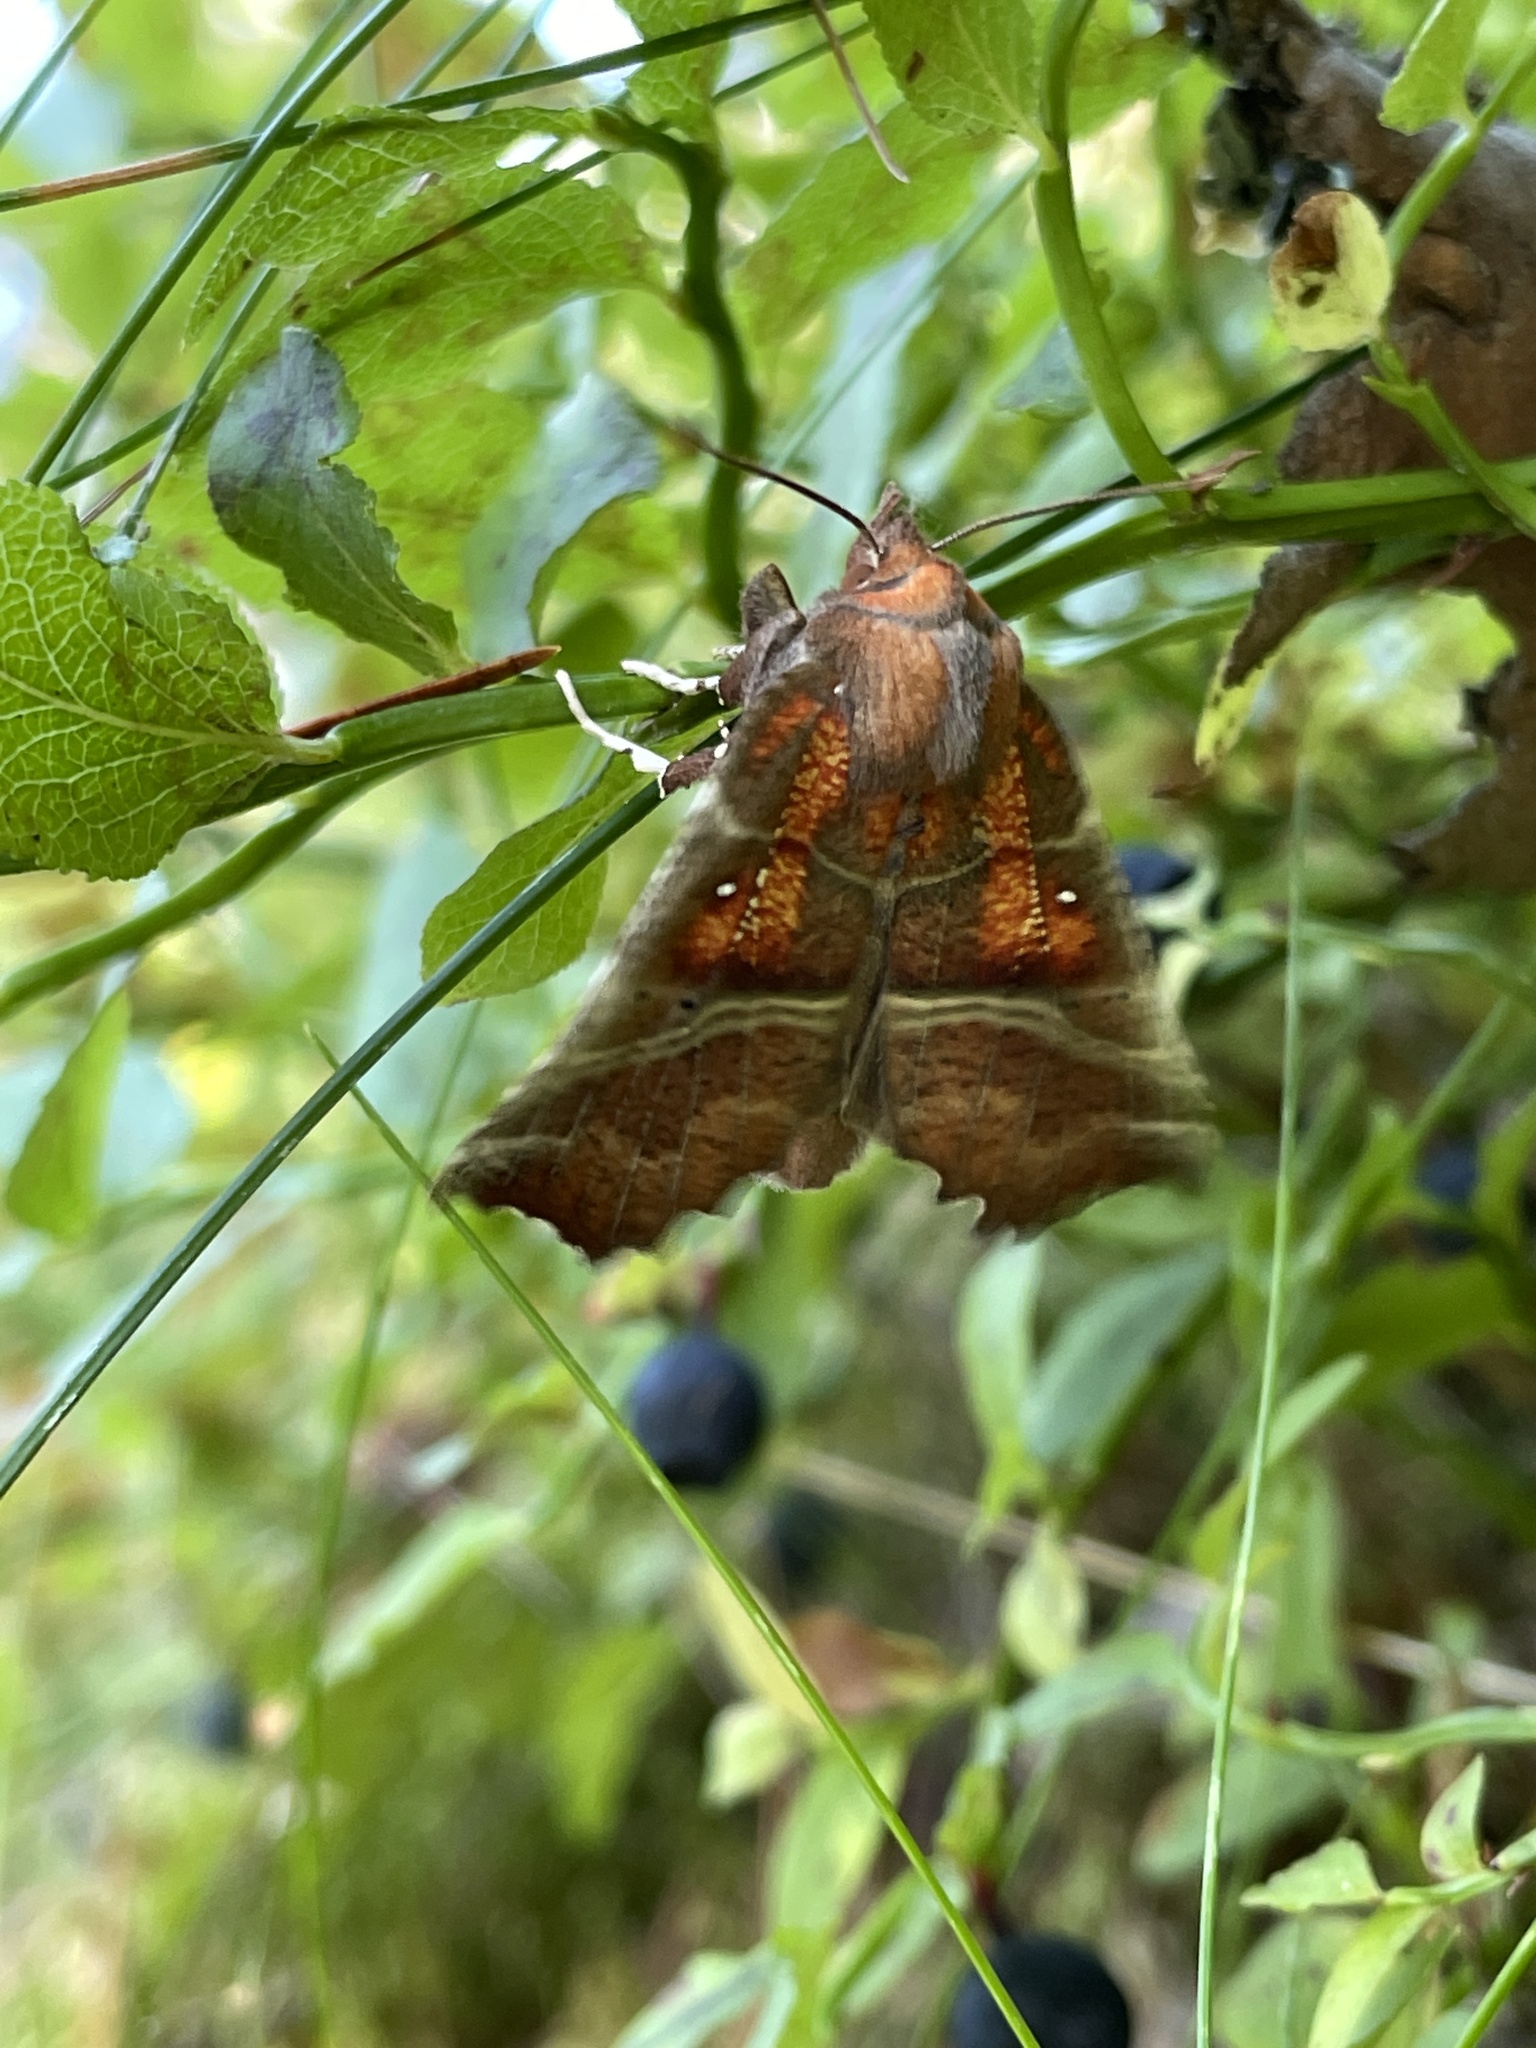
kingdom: Animalia
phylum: Arthropoda
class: Insecta
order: Lepidoptera
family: Erebidae
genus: Scoliopteryx
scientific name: Scoliopteryx libatrix
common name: Herald
